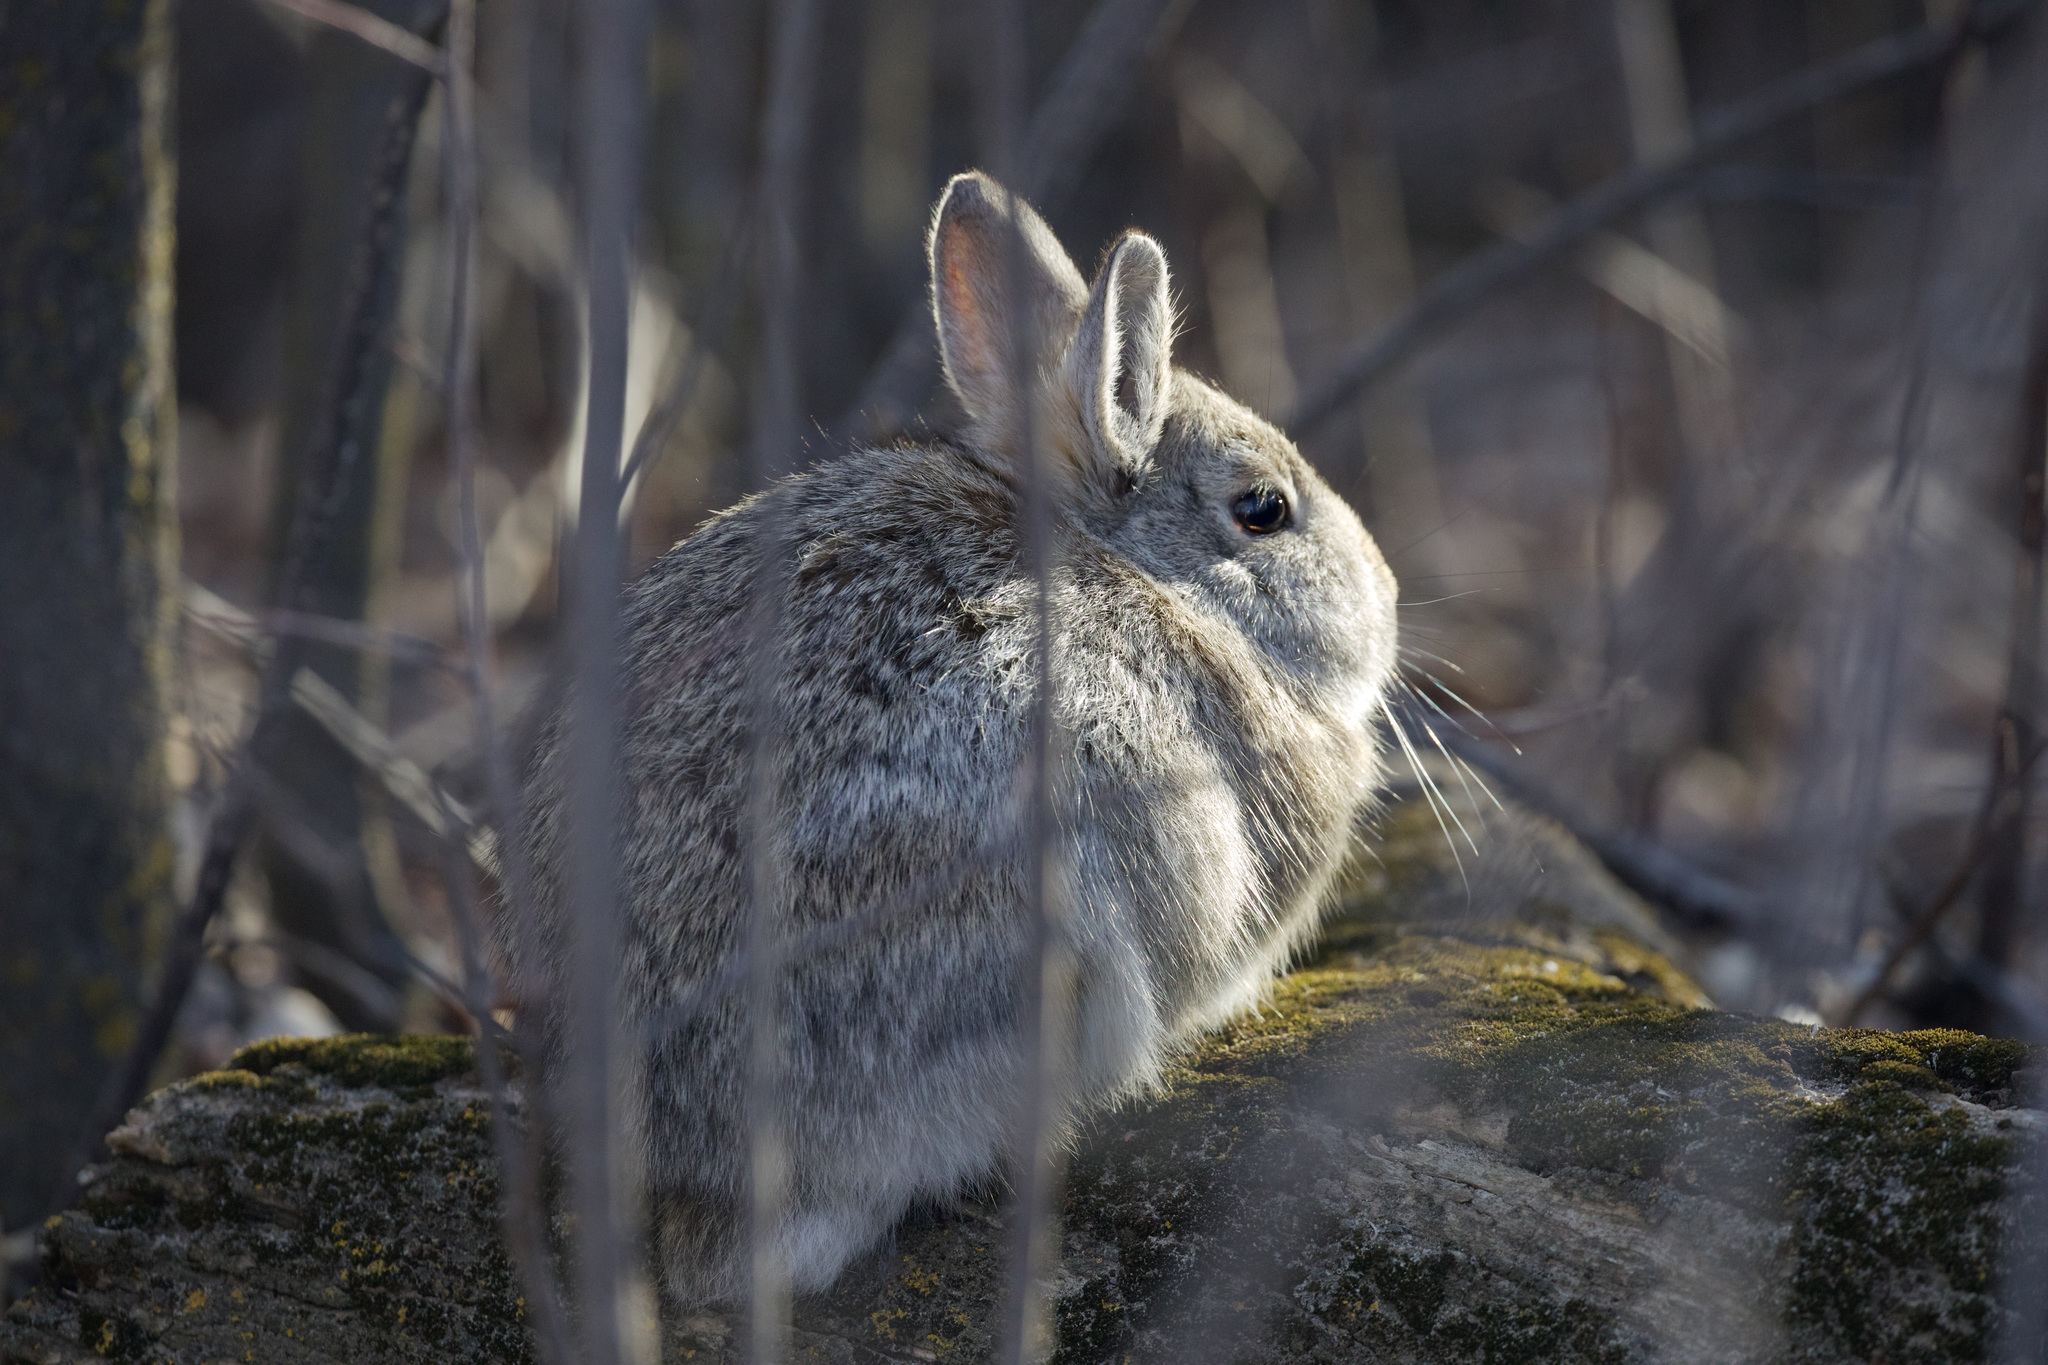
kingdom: Animalia
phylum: Chordata
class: Mammalia
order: Lagomorpha
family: Leporidae
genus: Sylvilagus
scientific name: Sylvilagus nuttallii
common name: Mountain cottontail
